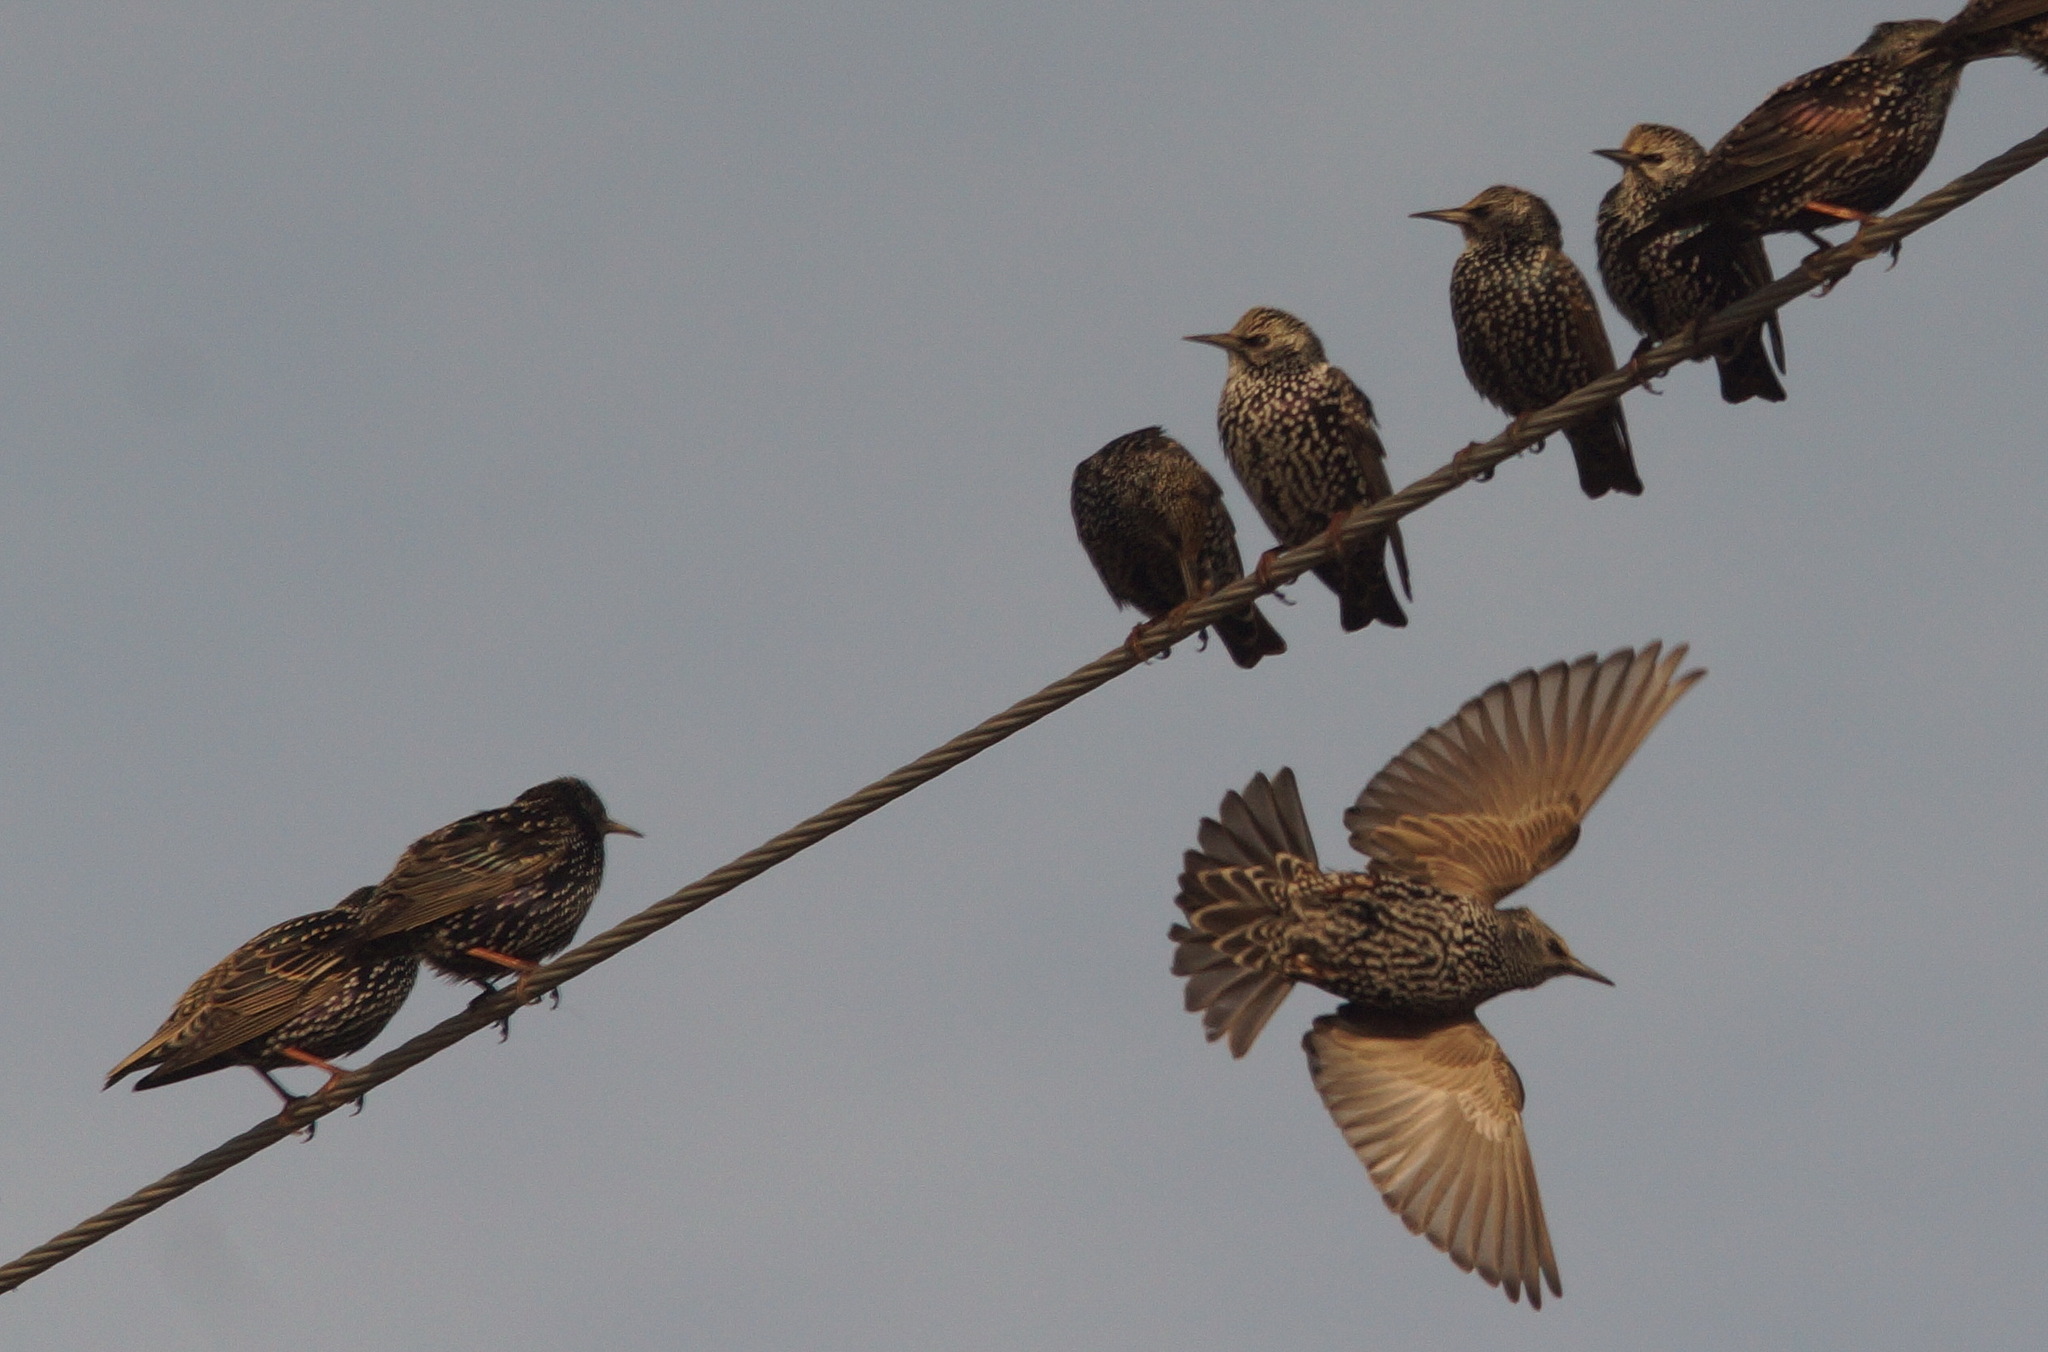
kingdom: Animalia
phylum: Chordata
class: Aves
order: Passeriformes
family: Sturnidae
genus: Sturnus
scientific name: Sturnus vulgaris
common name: Common starling
